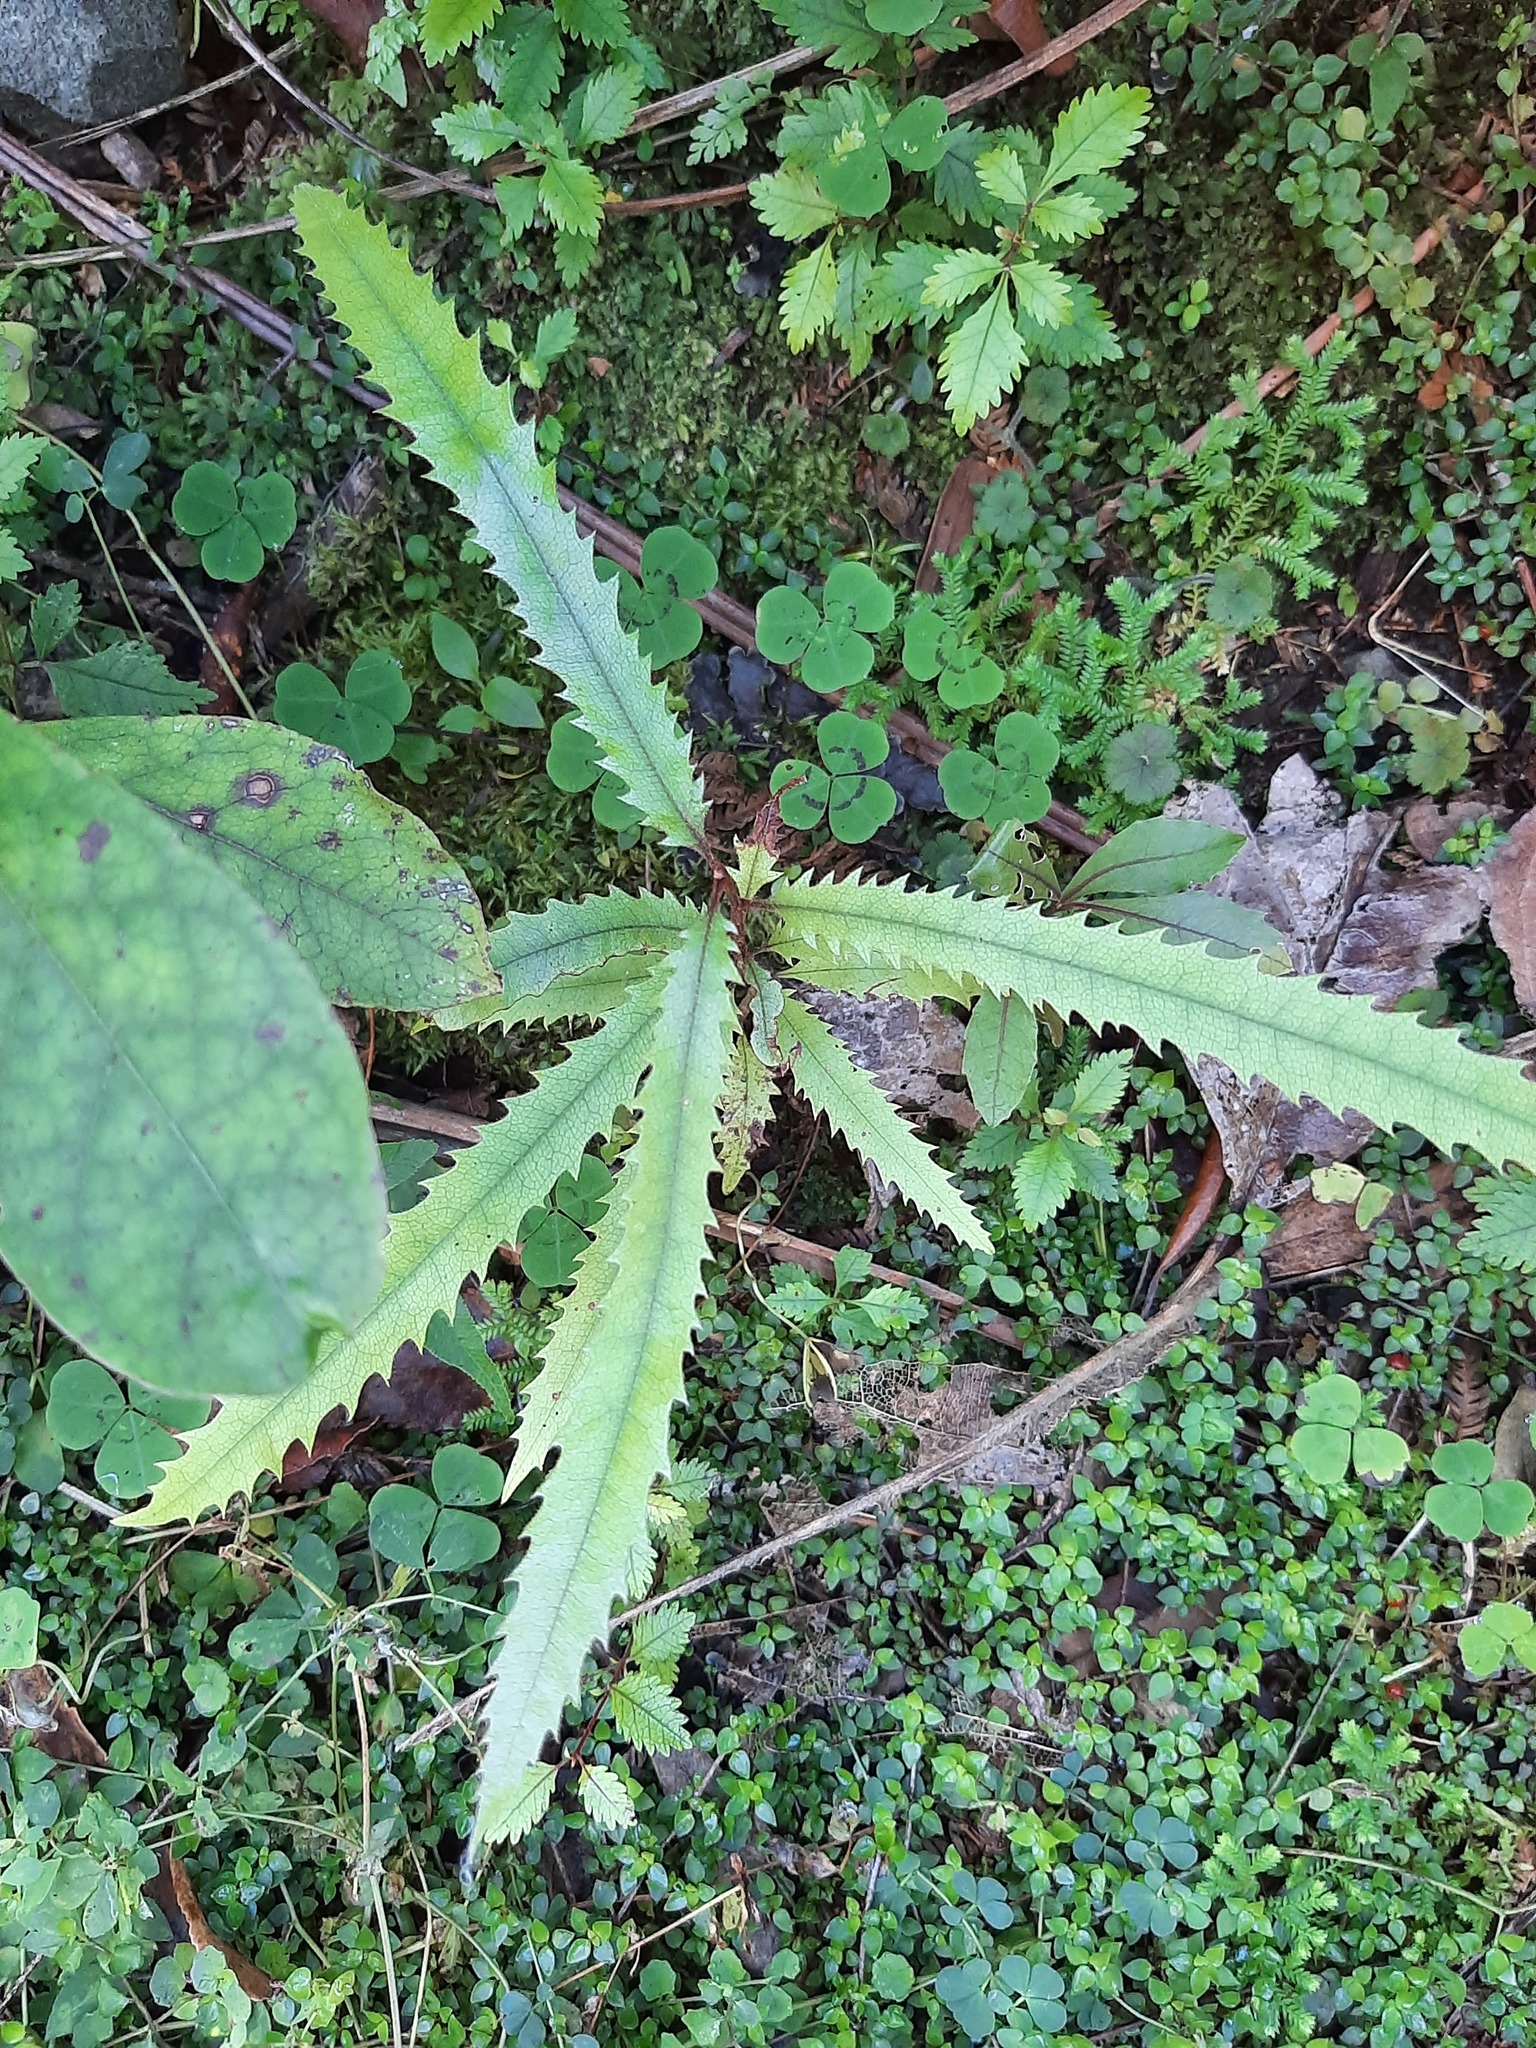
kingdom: Plantae
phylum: Tracheophyta
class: Magnoliopsida
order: Proteales
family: Proteaceae
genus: Knightia
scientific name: Knightia excelsa
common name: New zealand-honeysuckle
